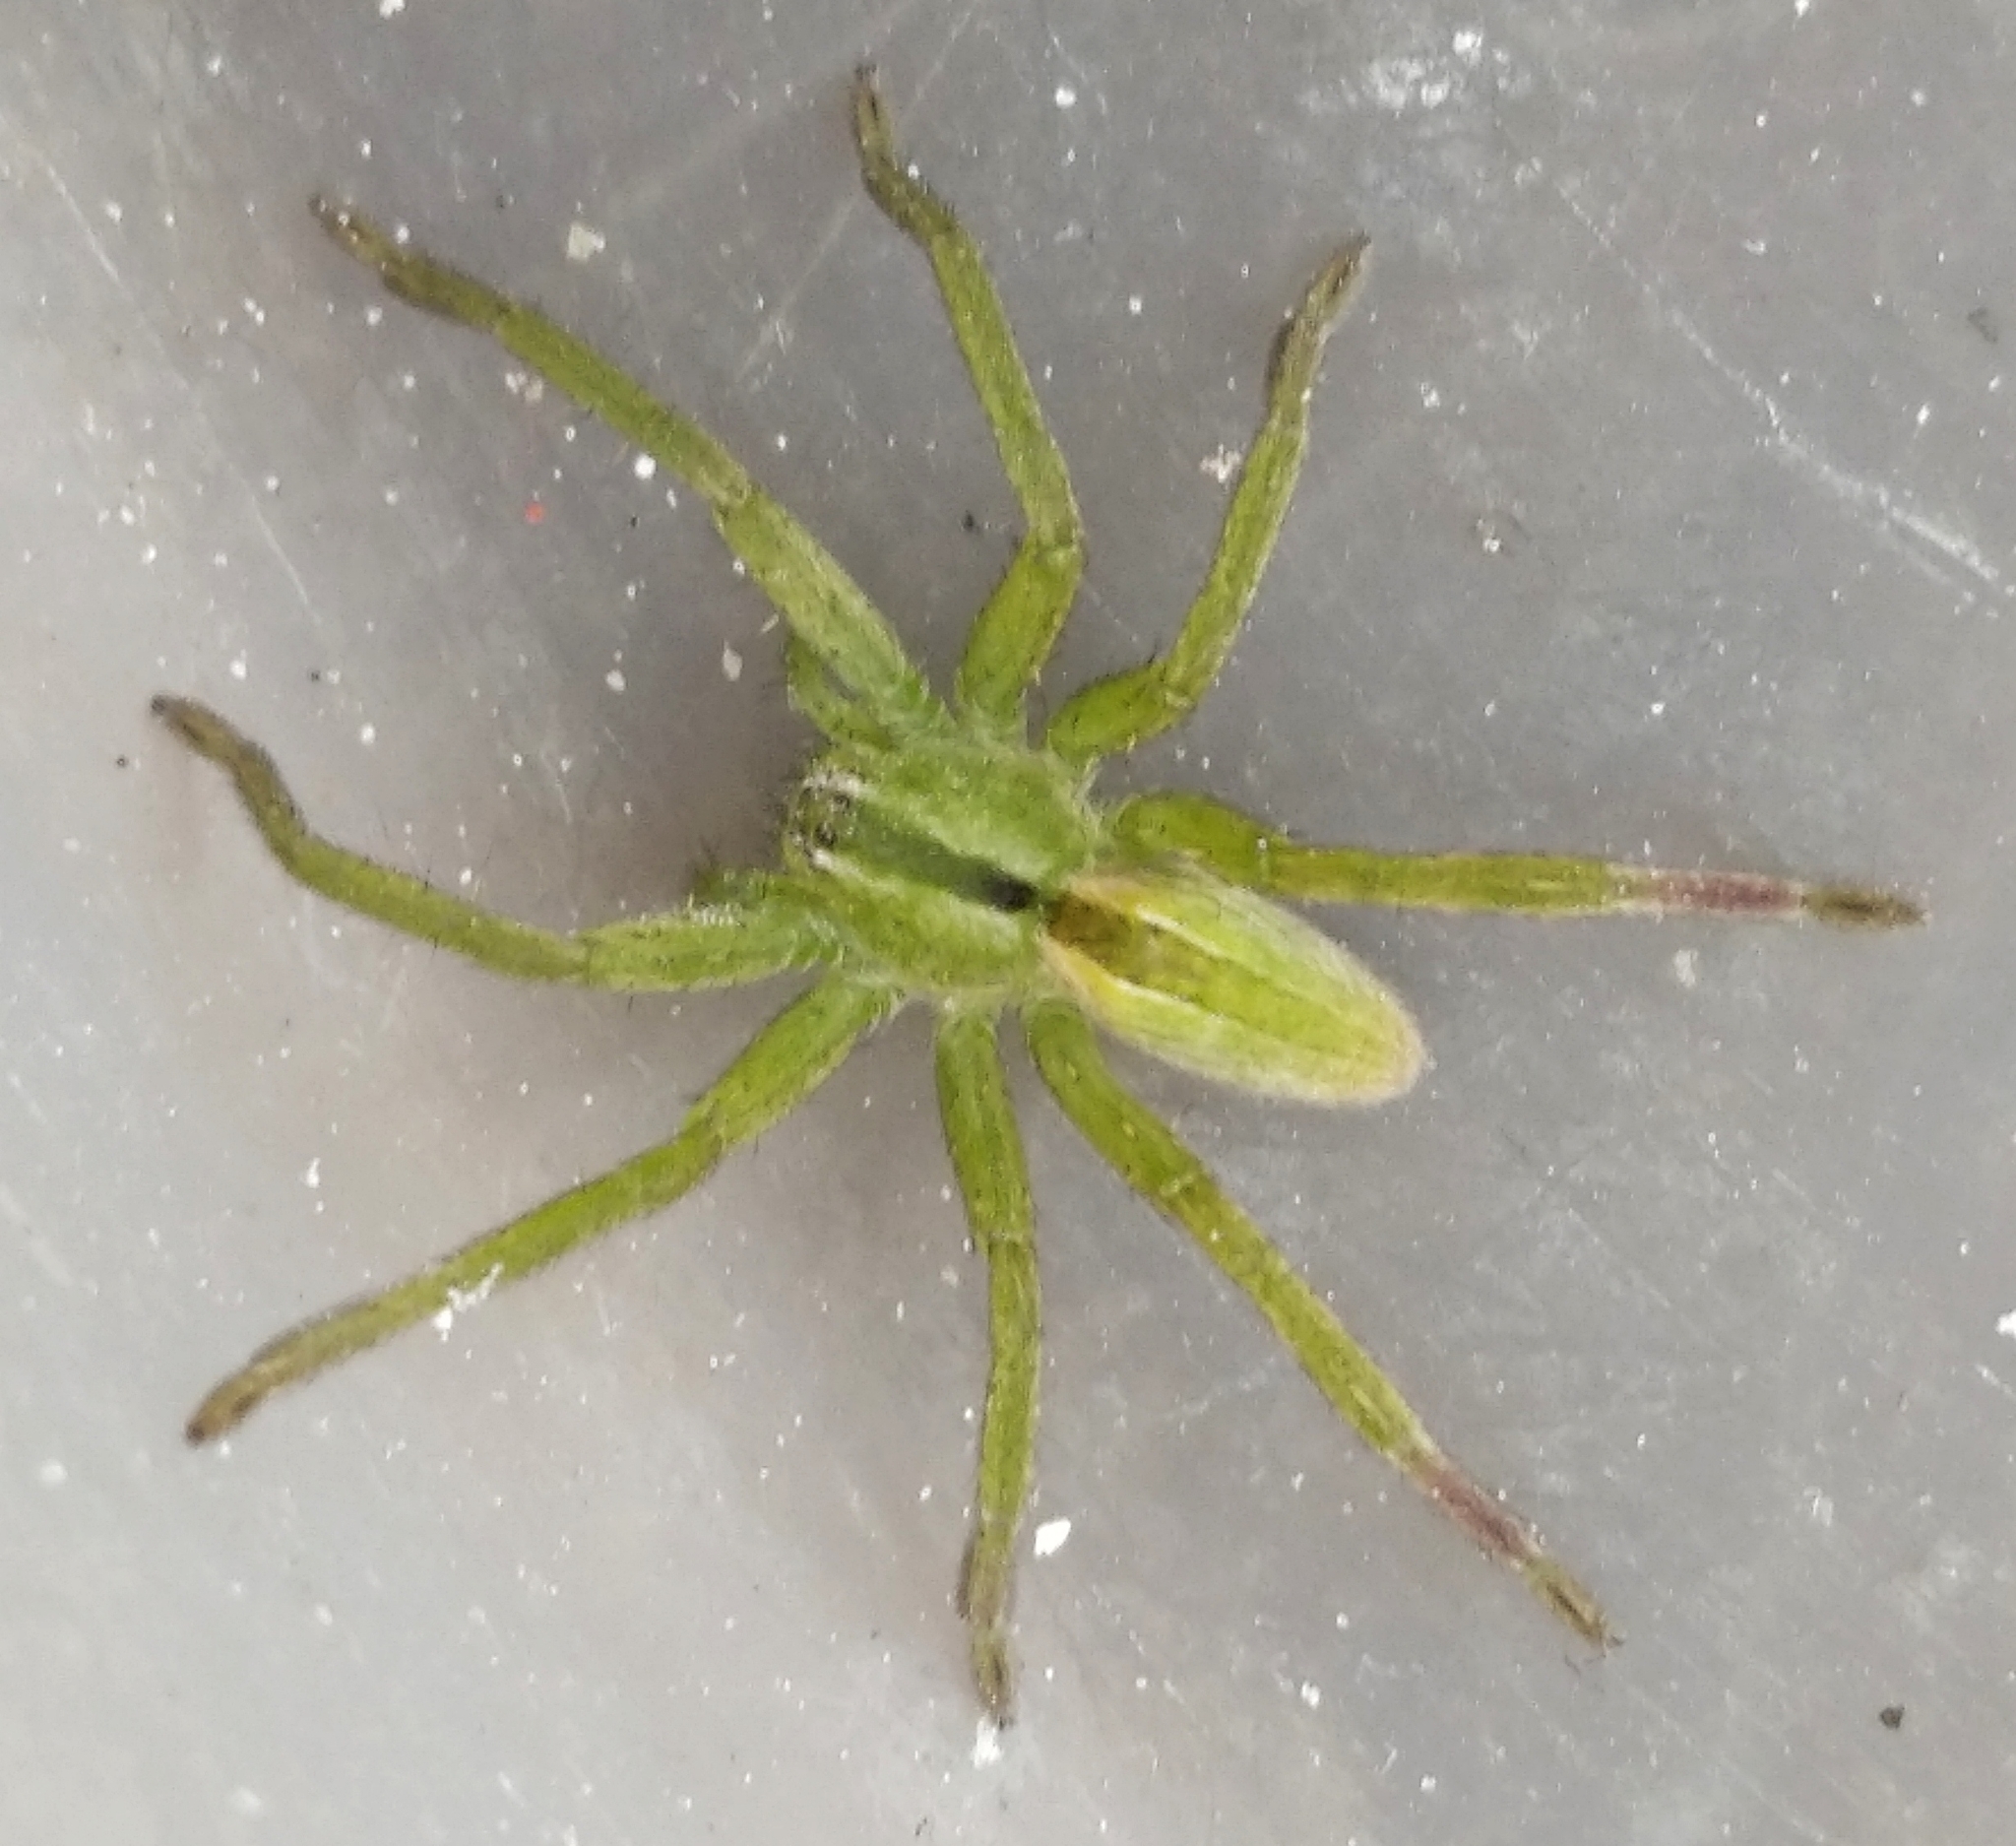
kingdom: Animalia
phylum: Arthropoda
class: Arachnida
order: Araneae
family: Sparassidae
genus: Micrommata
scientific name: Micrommata ligurina
